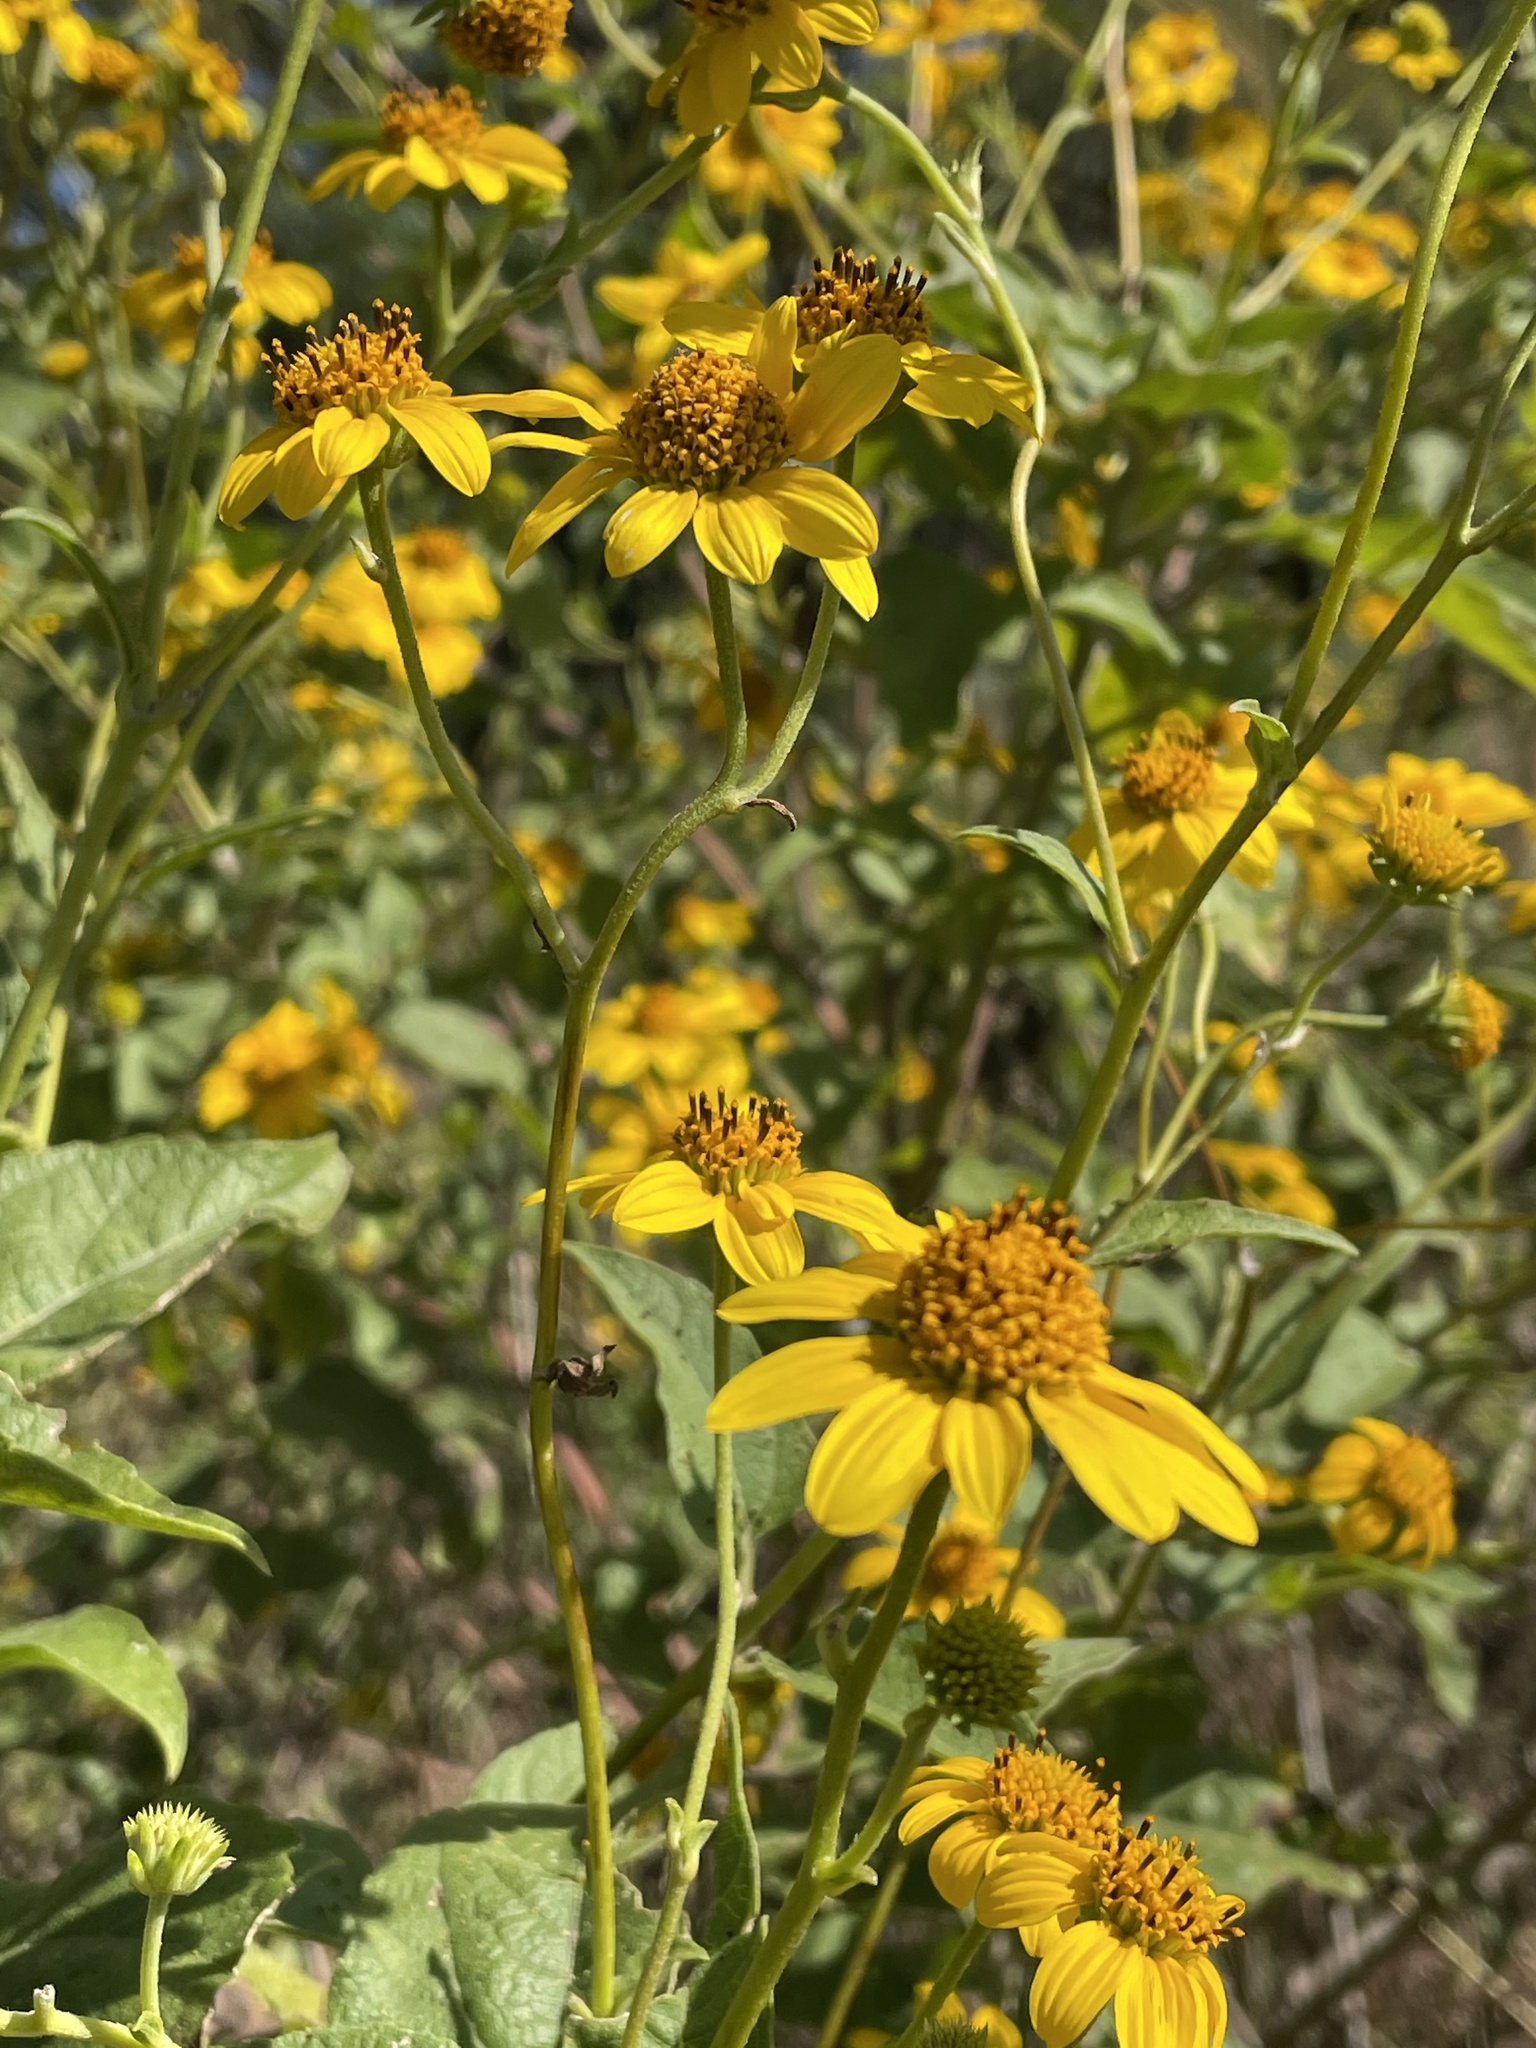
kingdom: Plantae
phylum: Tracheophyta
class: Magnoliopsida
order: Asterales
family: Asteraceae
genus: Viguiera
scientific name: Viguiera dentata
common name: Toothleaf
